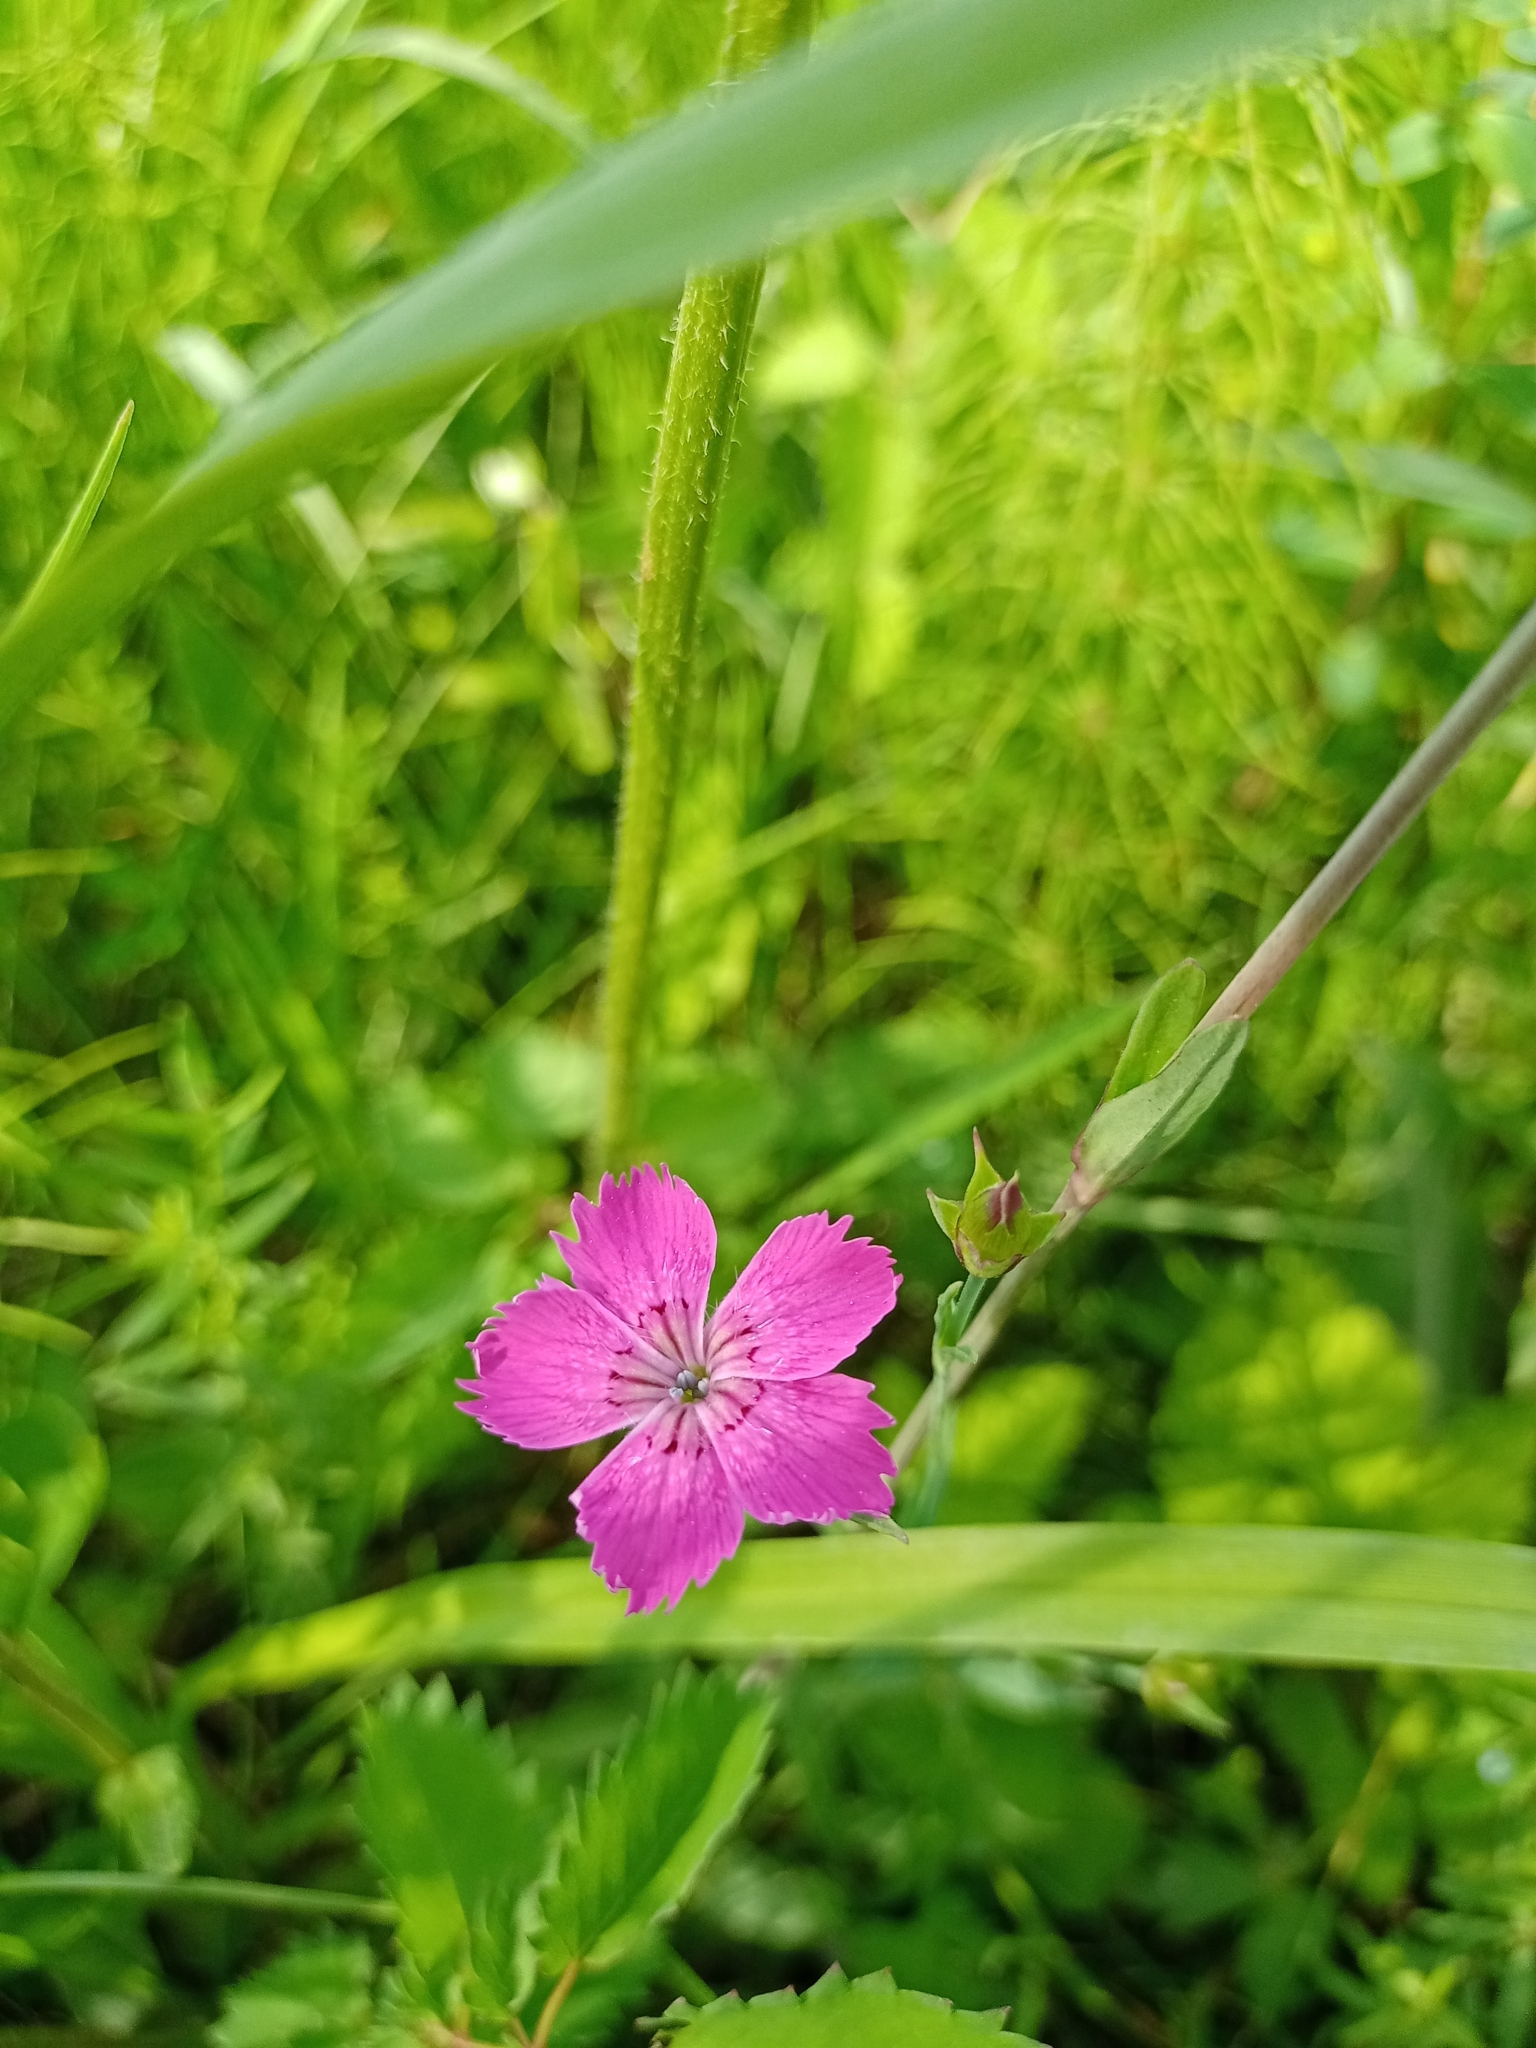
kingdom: Plantae
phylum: Tracheophyta
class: Magnoliopsida
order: Caryophyllales
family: Caryophyllaceae
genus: Dianthus
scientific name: Dianthus chinensis
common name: Rainbow pink
